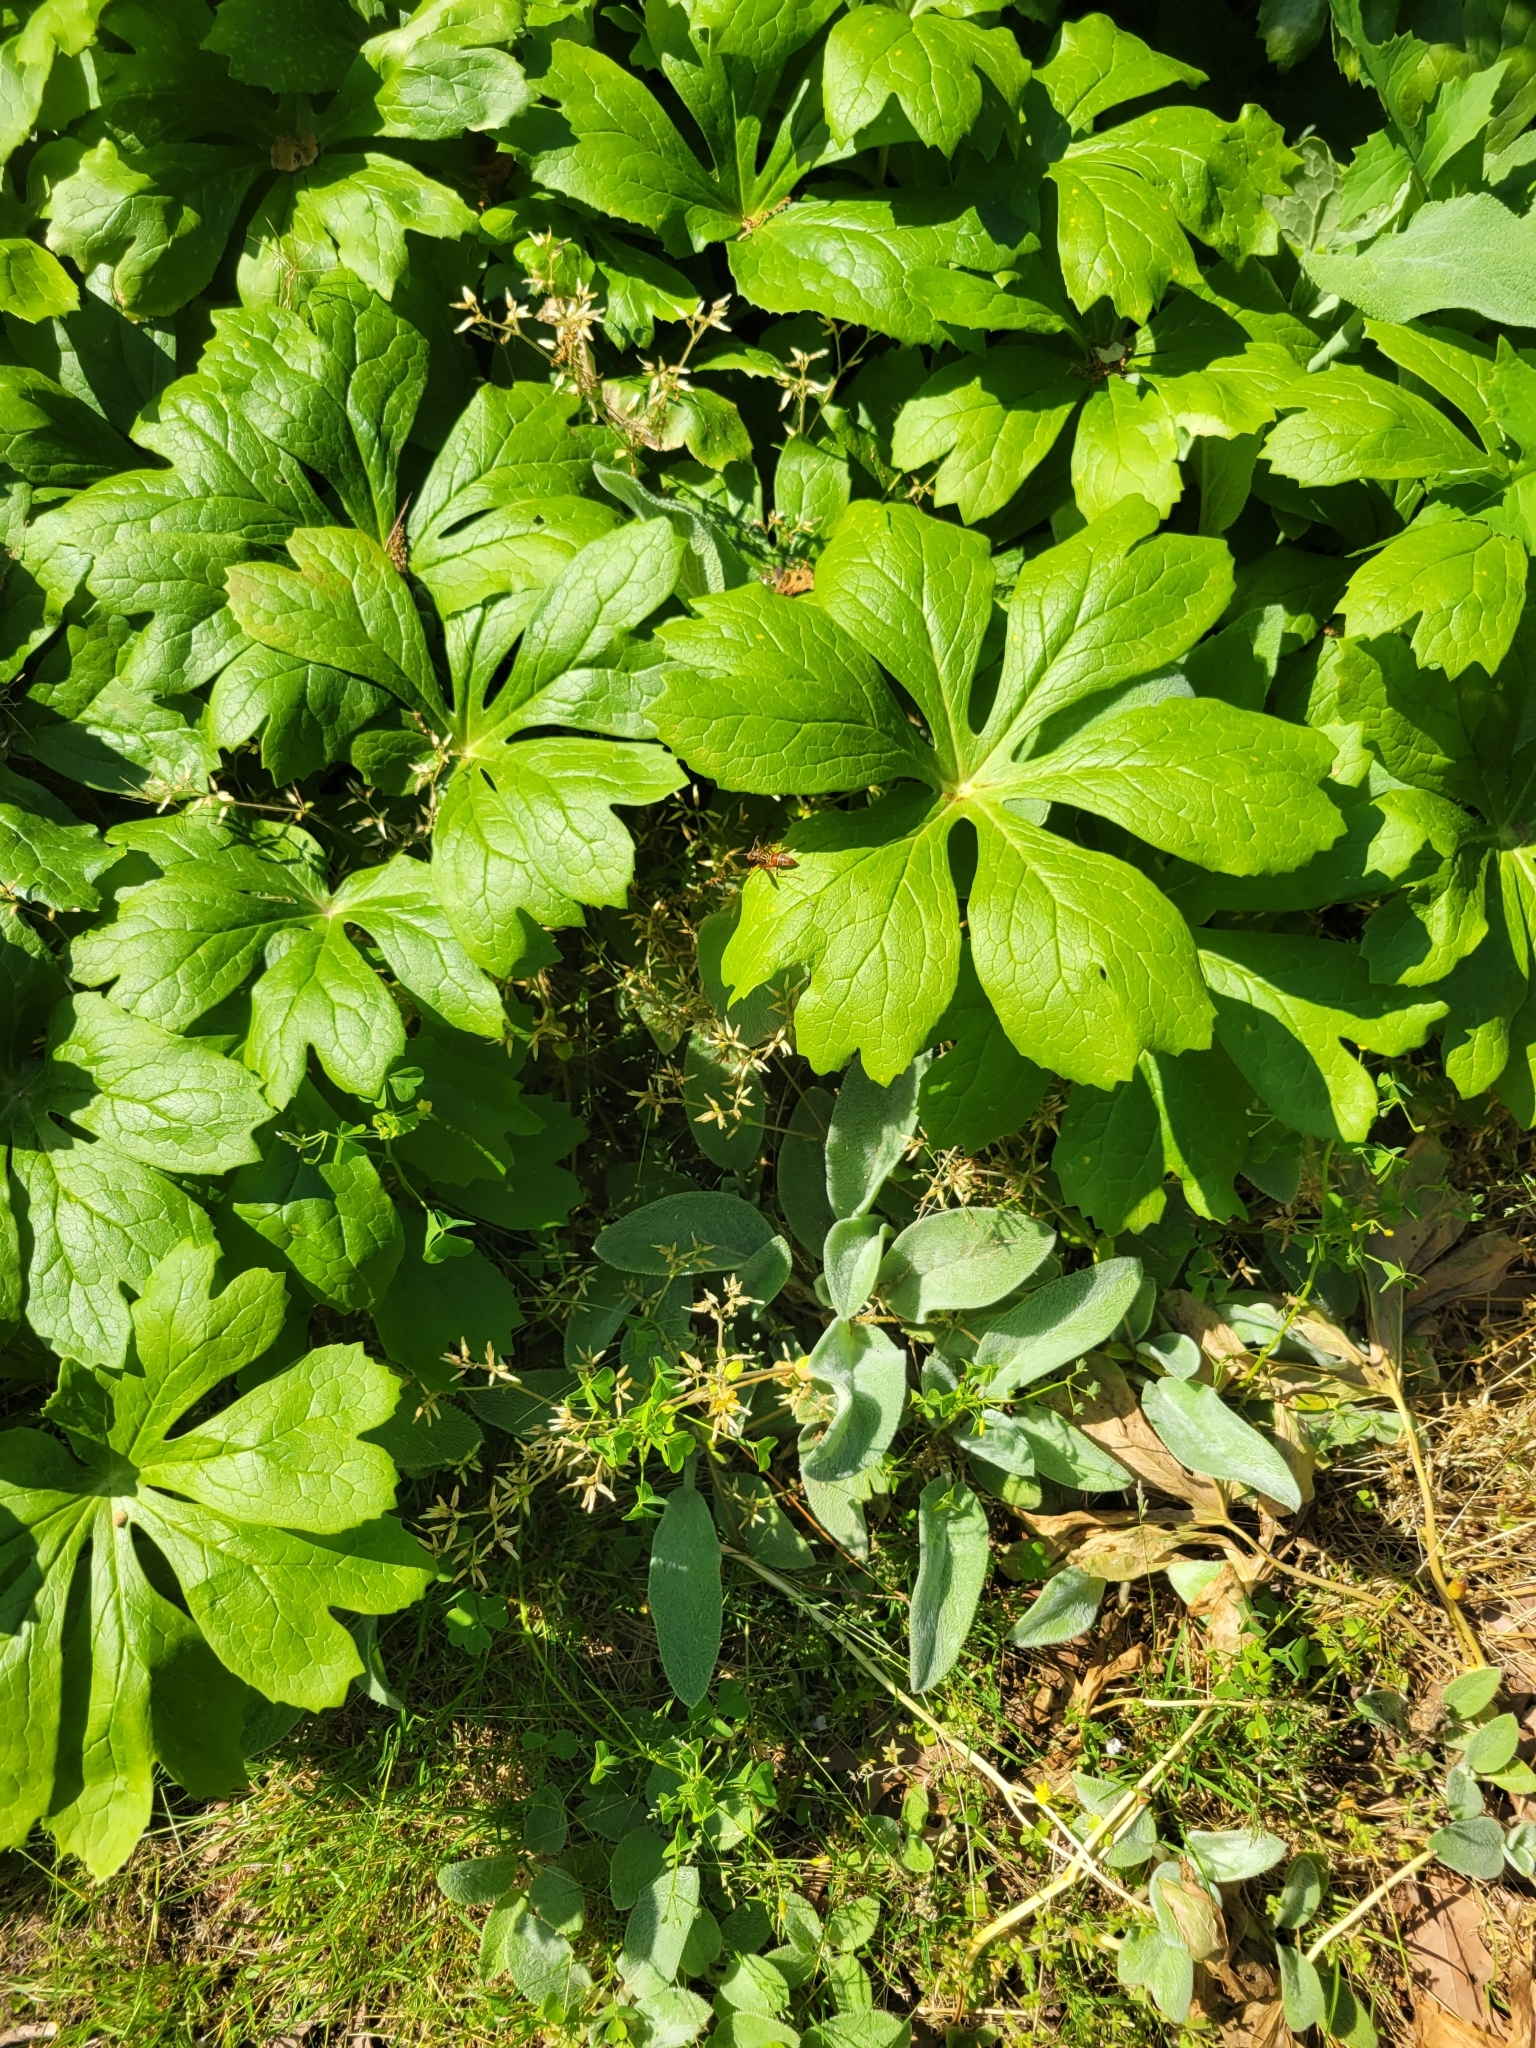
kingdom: Plantae
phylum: Tracheophyta
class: Magnoliopsida
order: Ranunculales
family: Berberidaceae
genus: Podophyllum
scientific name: Podophyllum peltatum
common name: Wild mandrake
